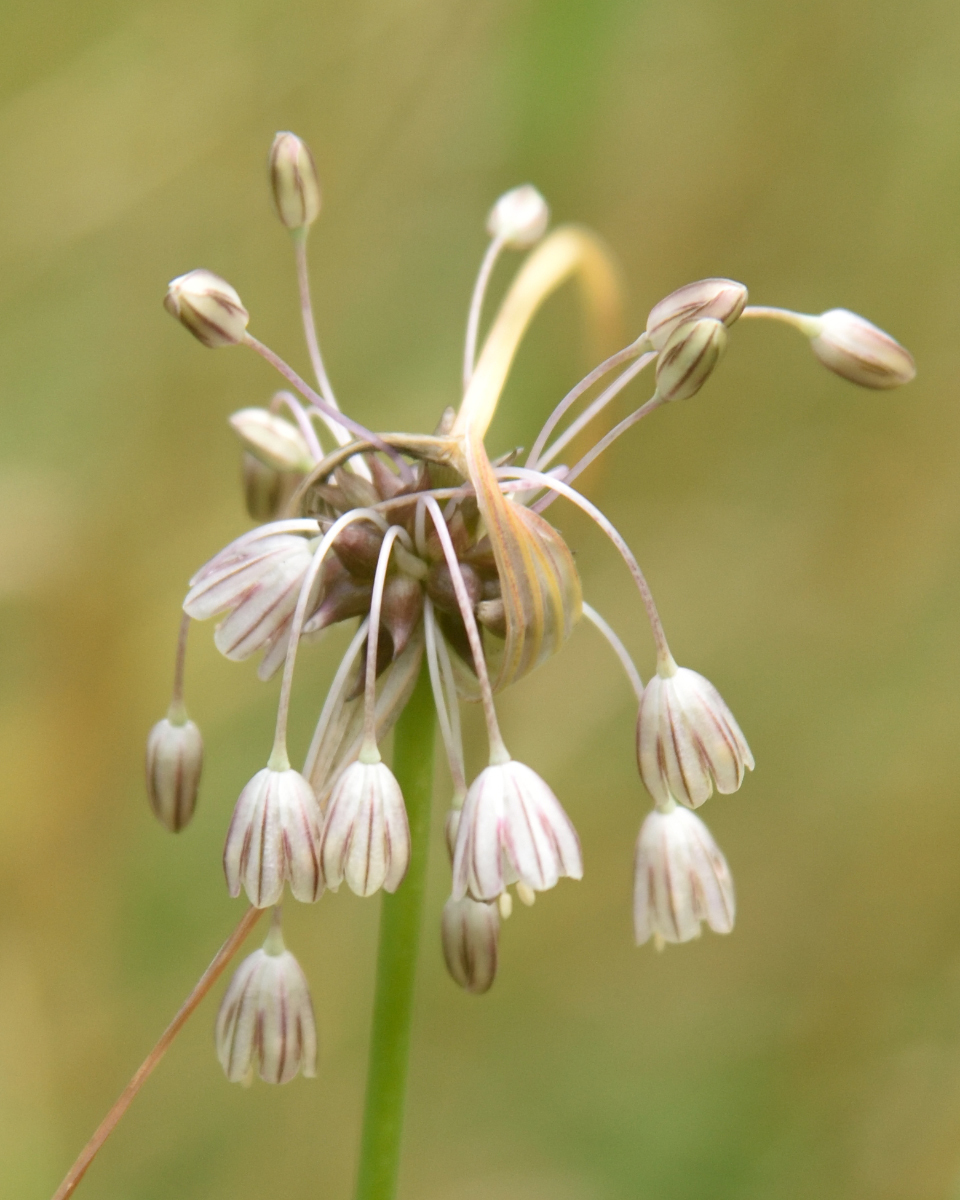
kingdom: Plantae
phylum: Tracheophyta
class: Liliopsida
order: Asparagales
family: Amaryllidaceae
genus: Allium
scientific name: Allium oleraceum
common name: Field garlic
